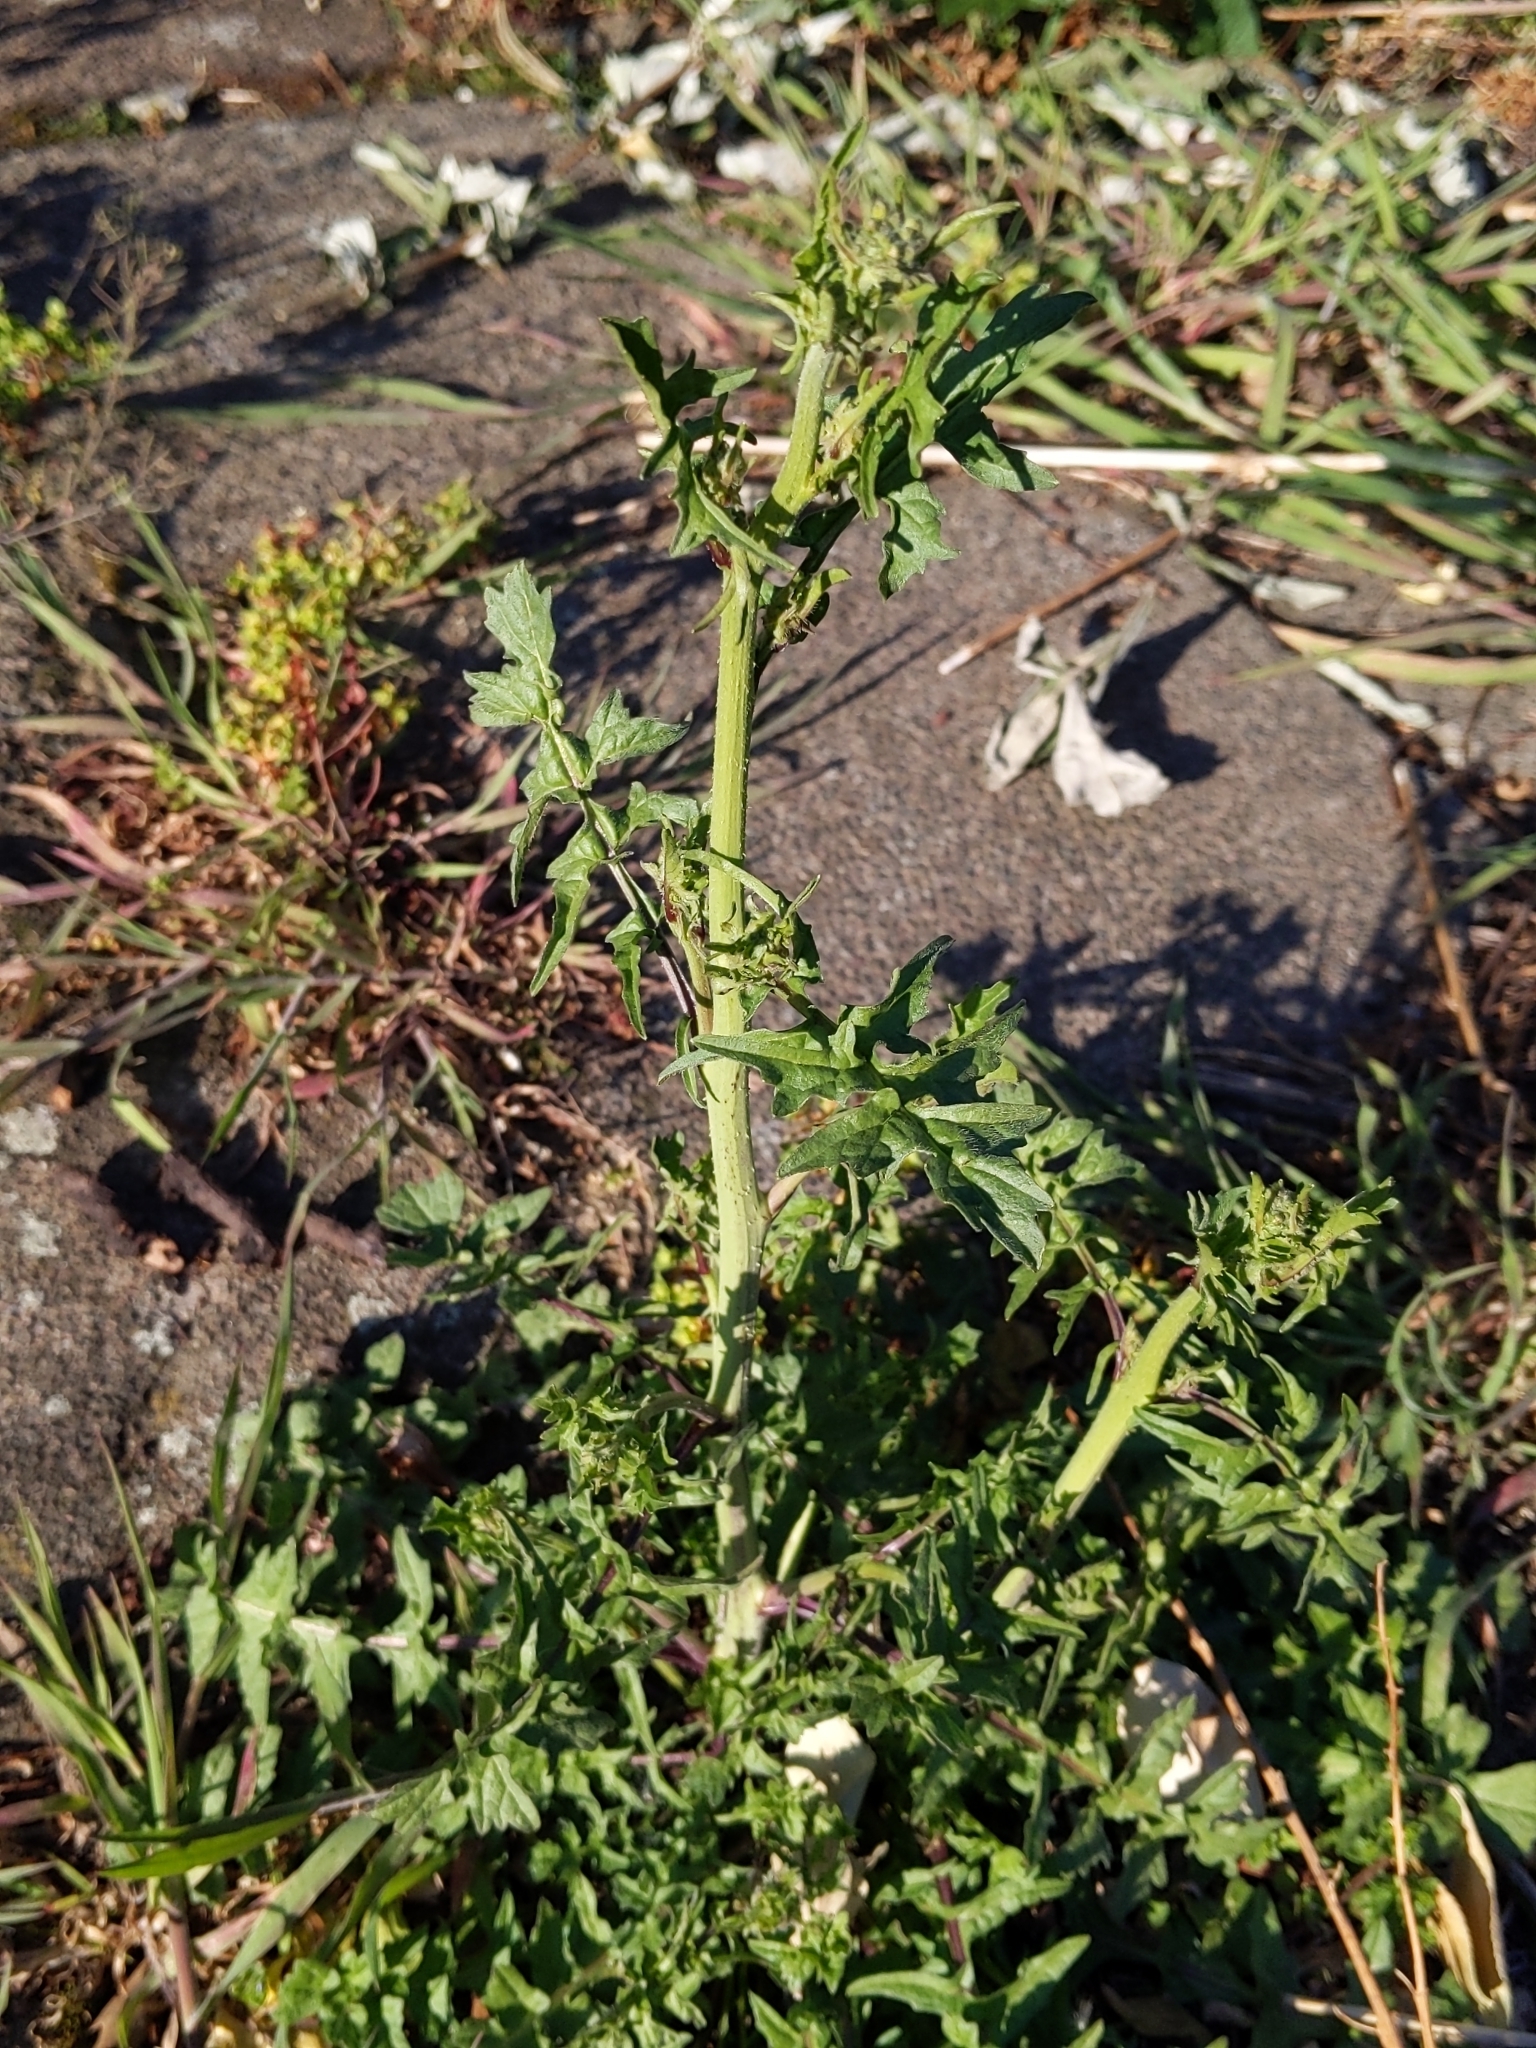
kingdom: Plantae
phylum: Tracheophyta
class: Magnoliopsida
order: Brassicales
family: Brassicaceae
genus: Sisymbrium
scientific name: Sisymbrium officinale
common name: Hedge mustard
